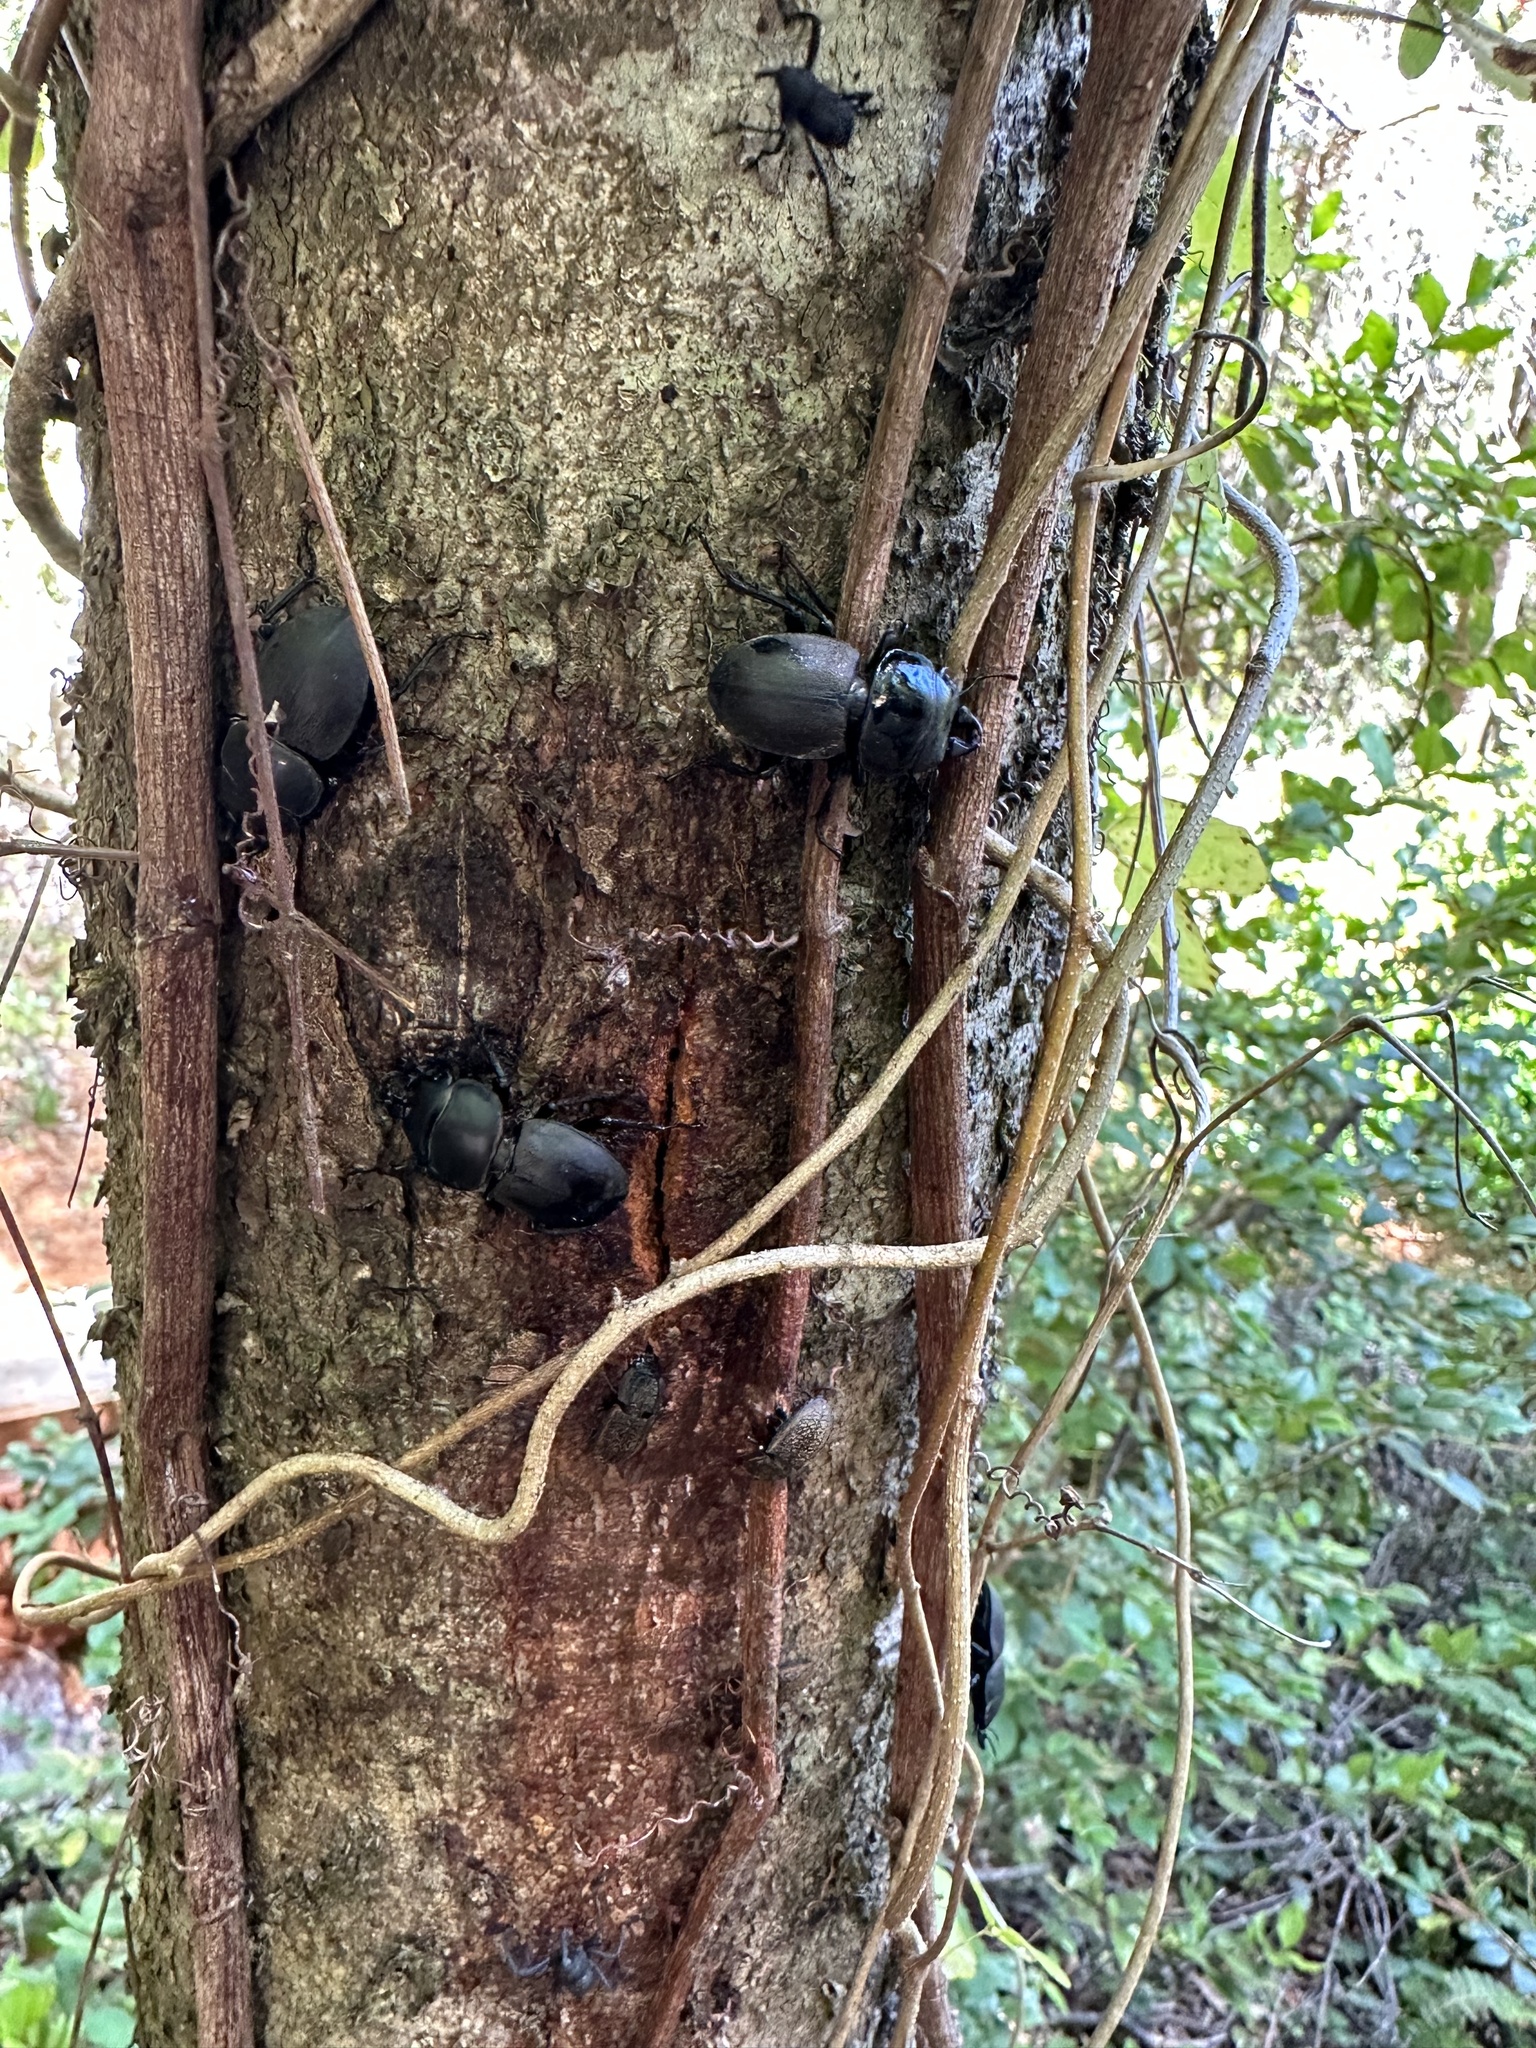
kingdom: Animalia
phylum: Arthropoda
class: Insecta
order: Coleoptera
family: Lucanidae
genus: Apterodorcus
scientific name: Apterodorcus bacchus
